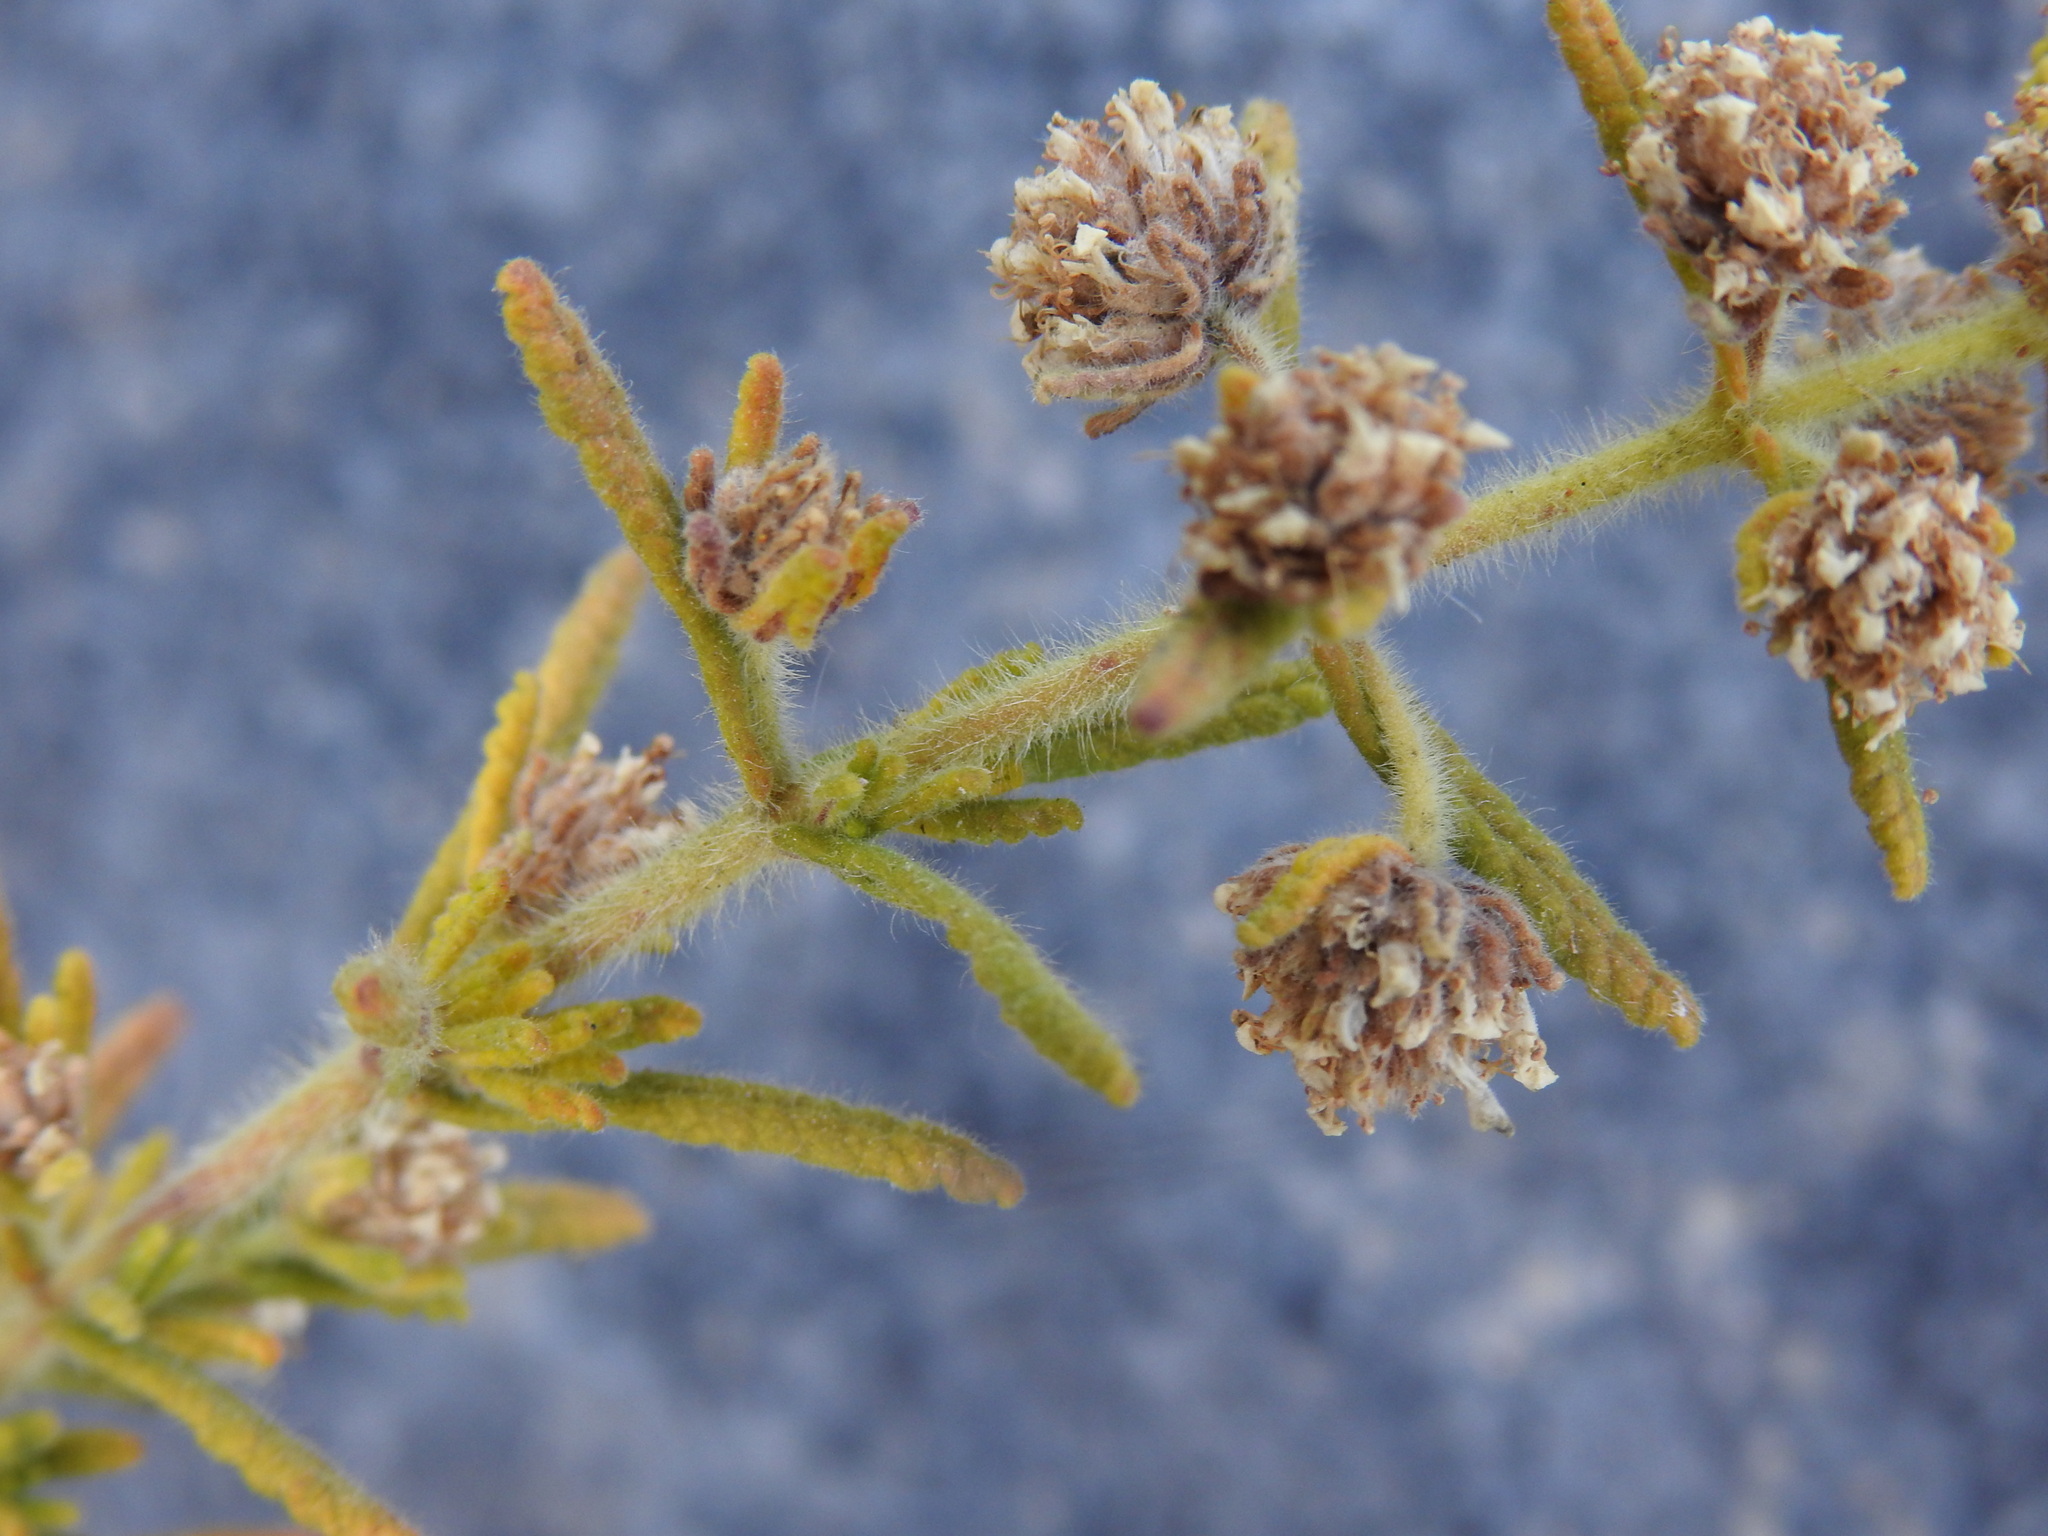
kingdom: Plantae
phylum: Tracheophyta
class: Magnoliopsida
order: Lamiales
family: Lamiaceae
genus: Teucrium
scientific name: Teucrium haenseleri
